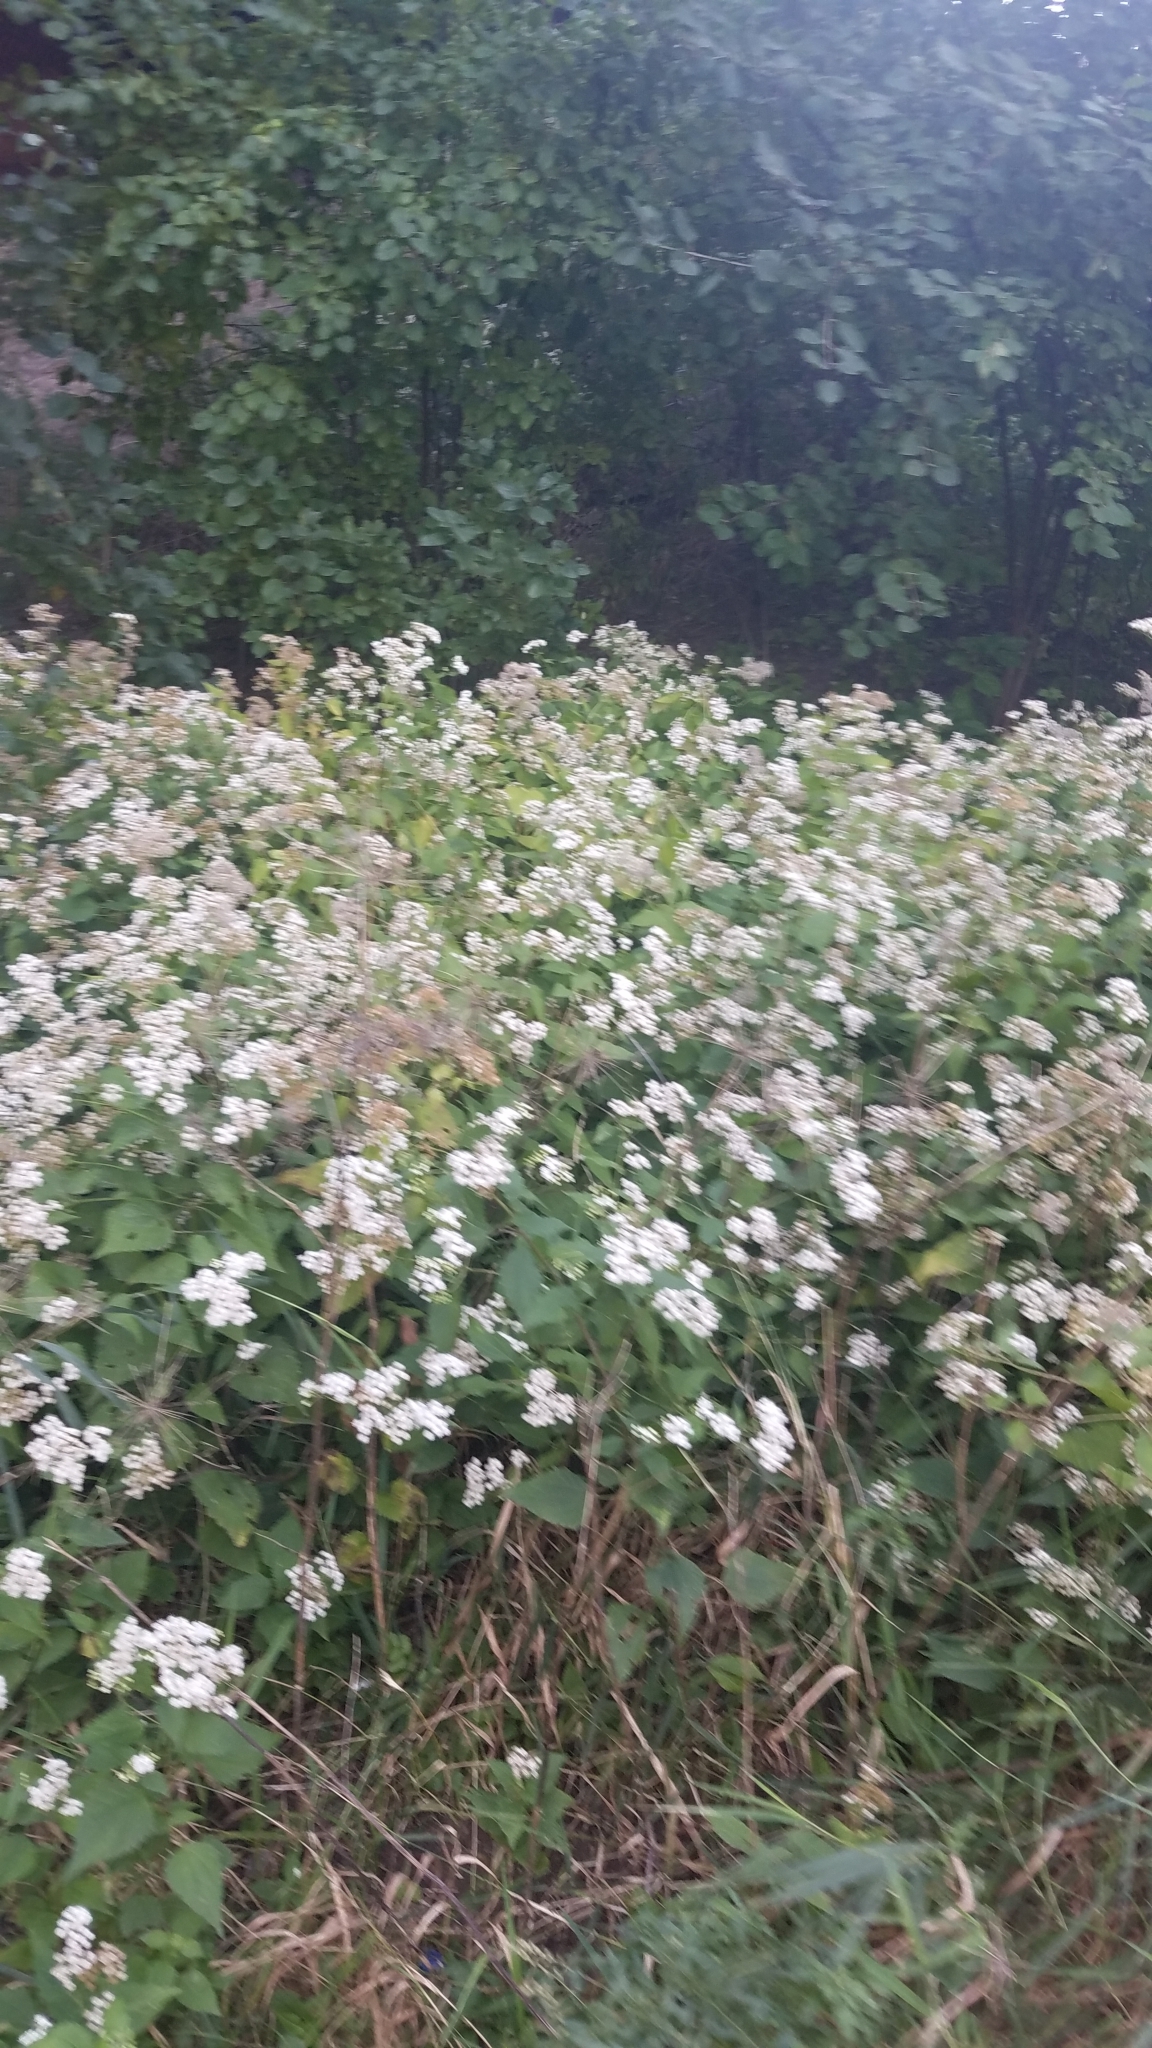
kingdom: Plantae
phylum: Tracheophyta
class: Magnoliopsida
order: Asterales
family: Asteraceae
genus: Ageratina
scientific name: Ageratina altissima
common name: White snakeroot
